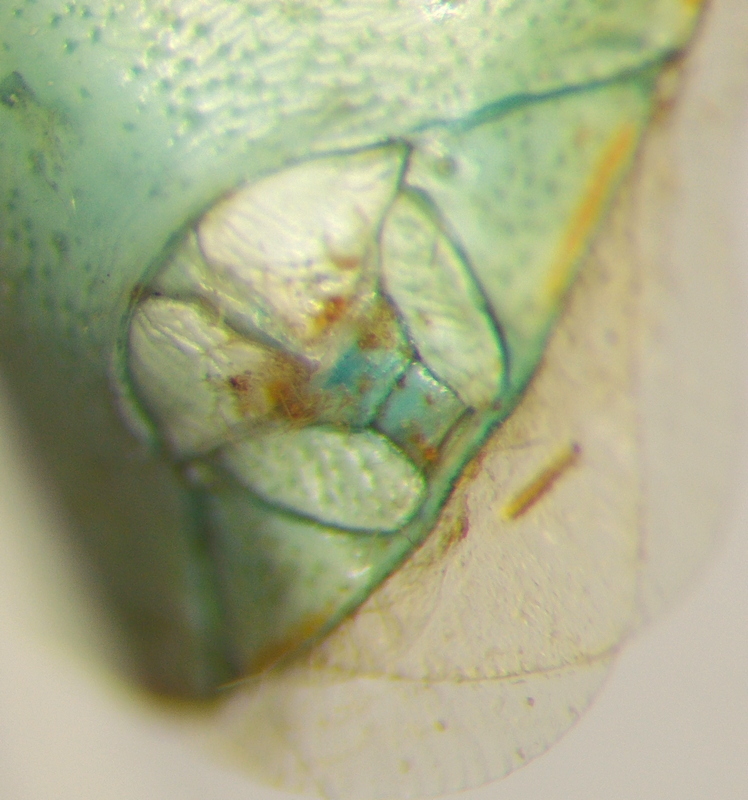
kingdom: Animalia
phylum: Arthropoda
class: Insecta
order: Hemiptera
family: Pentatomidae
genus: Thyanta
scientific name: Thyanta custator
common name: Stink bug
